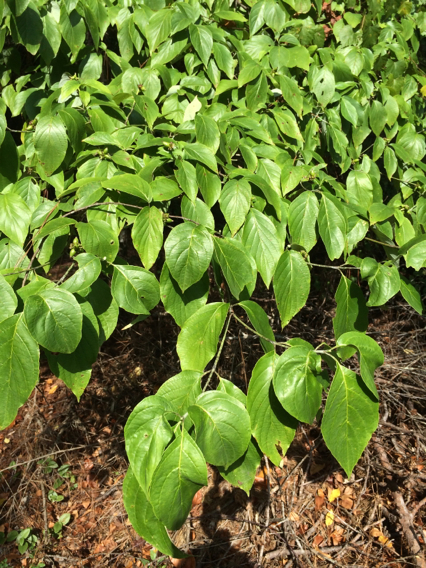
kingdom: Plantae
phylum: Tracheophyta
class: Magnoliopsida
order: Cornales
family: Cornaceae
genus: Cornus
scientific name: Cornus florida
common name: Flowering dogwood
